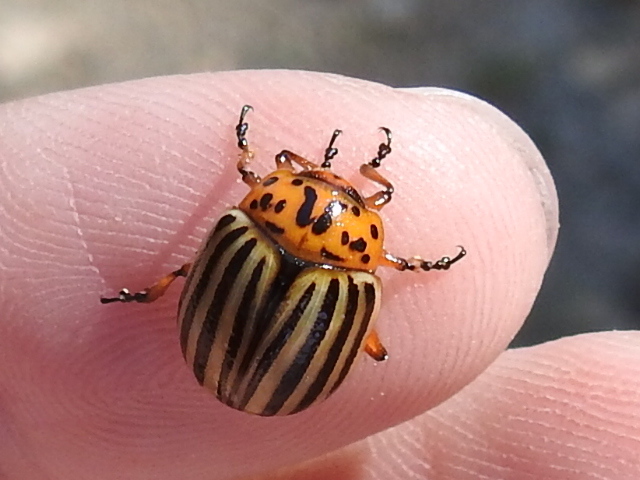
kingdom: Animalia
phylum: Arthropoda
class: Insecta
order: Coleoptera
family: Chrysomelidae
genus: Leptinotarsa
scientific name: Leptinotarsa decemlineata
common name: Colorado potato beetle
